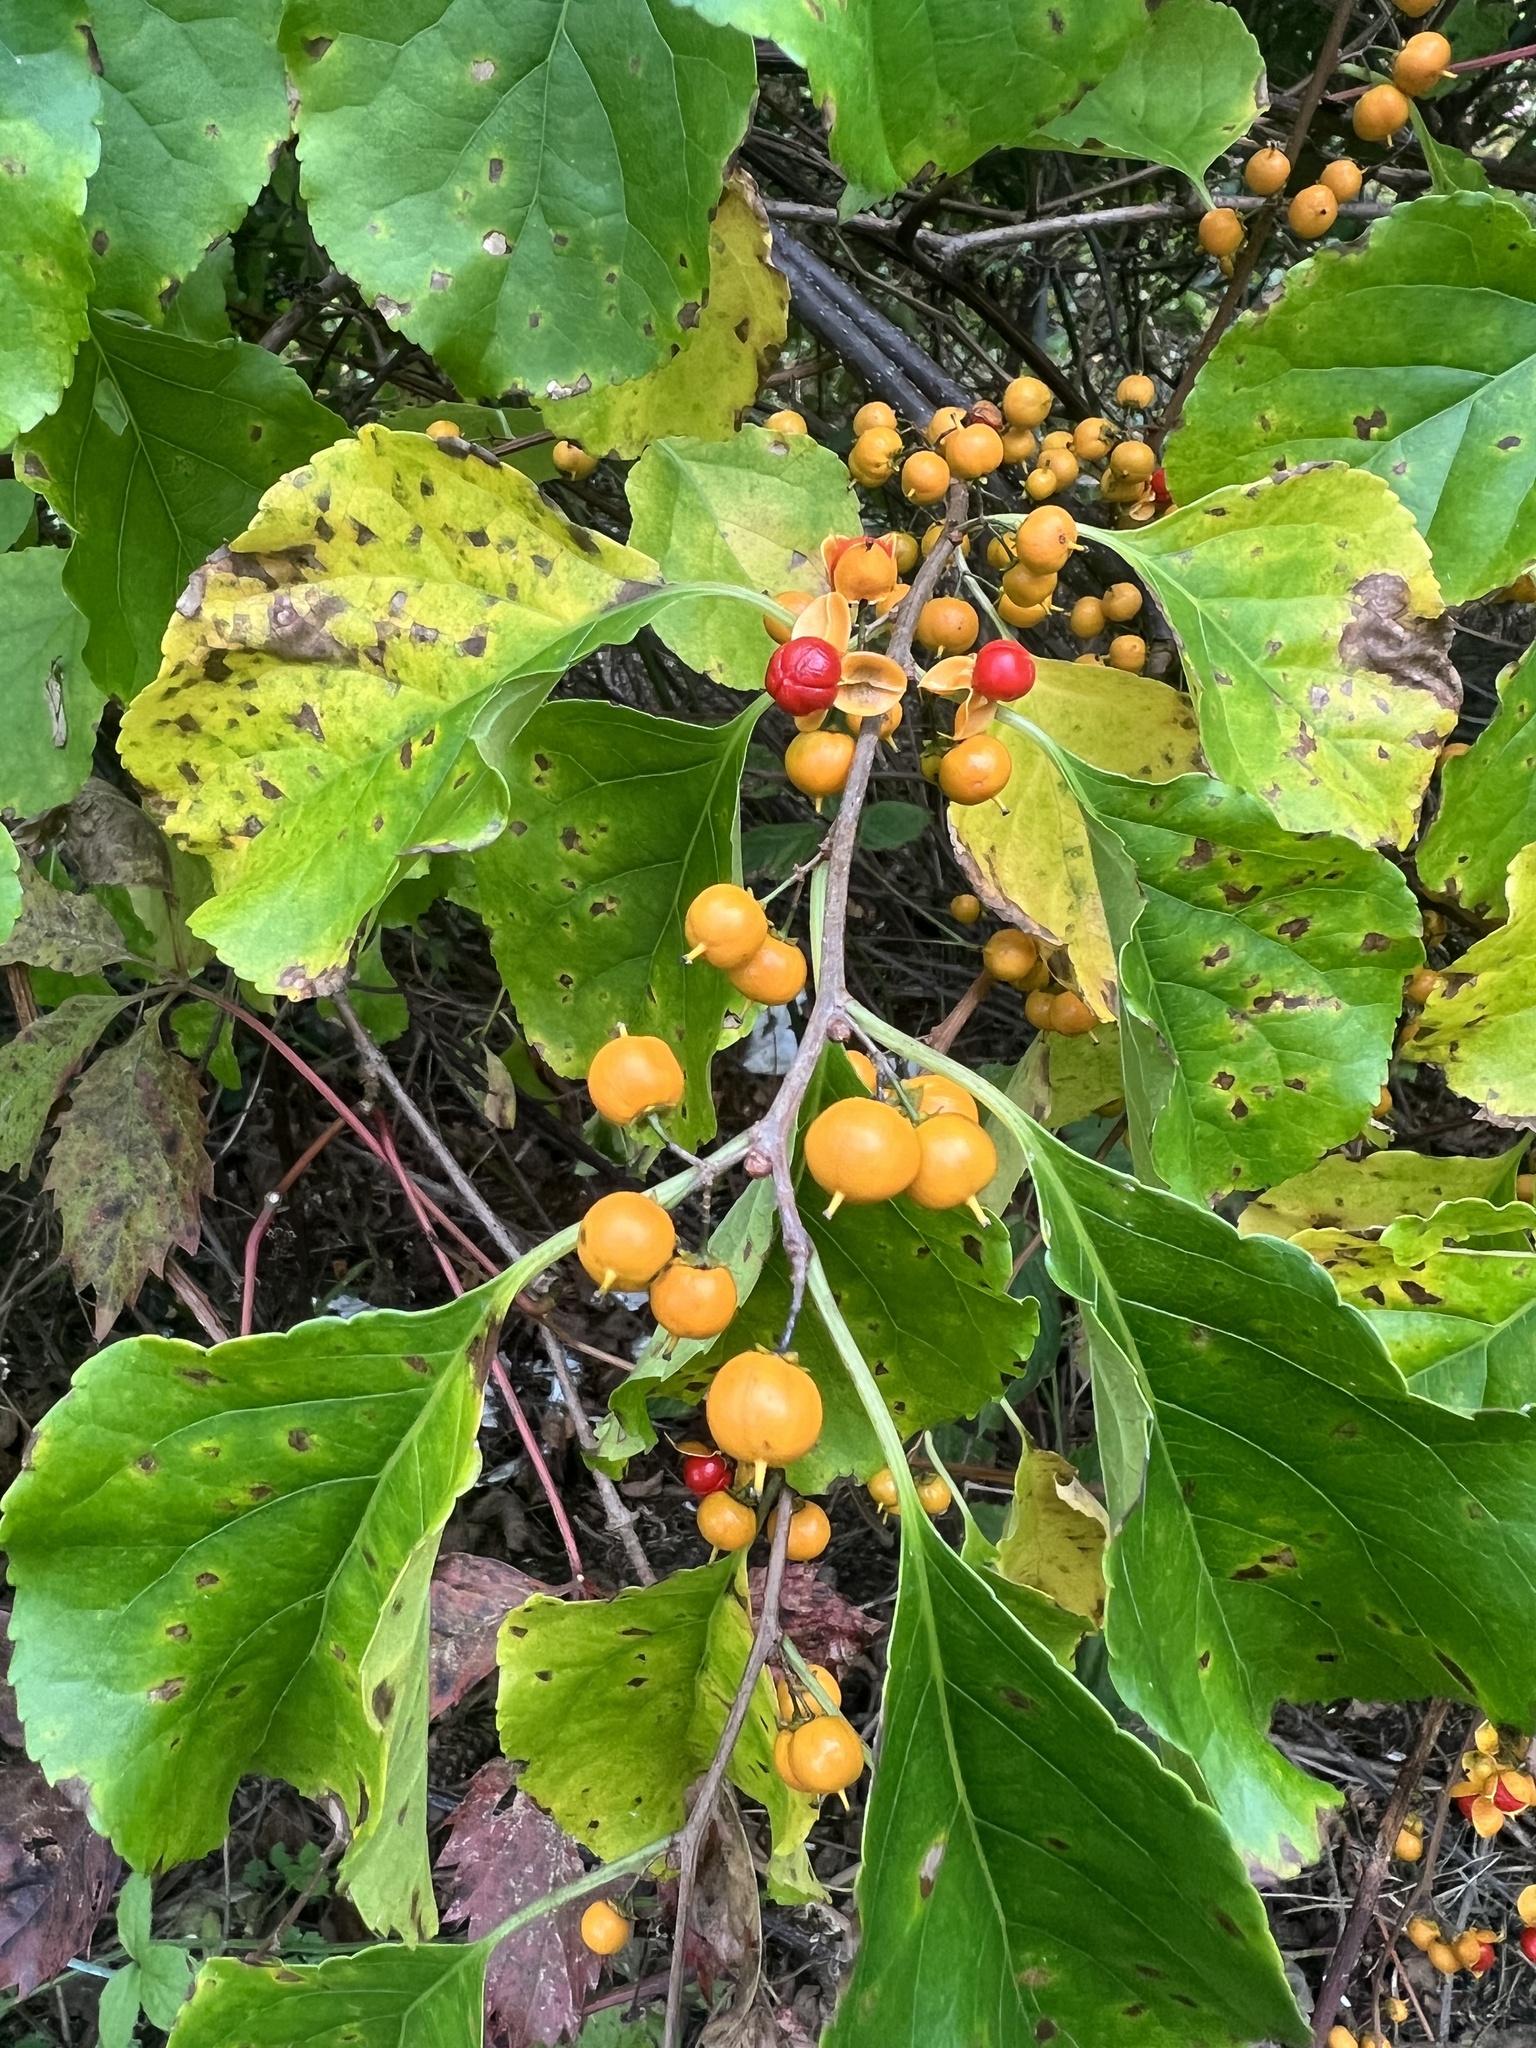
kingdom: Plantae
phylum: Tracheophyta
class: Magnoliopsida
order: Celastrales
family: Celastraceae
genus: Celastrus
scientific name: Celastrus orbiculatus
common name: Oriental bittersweet
